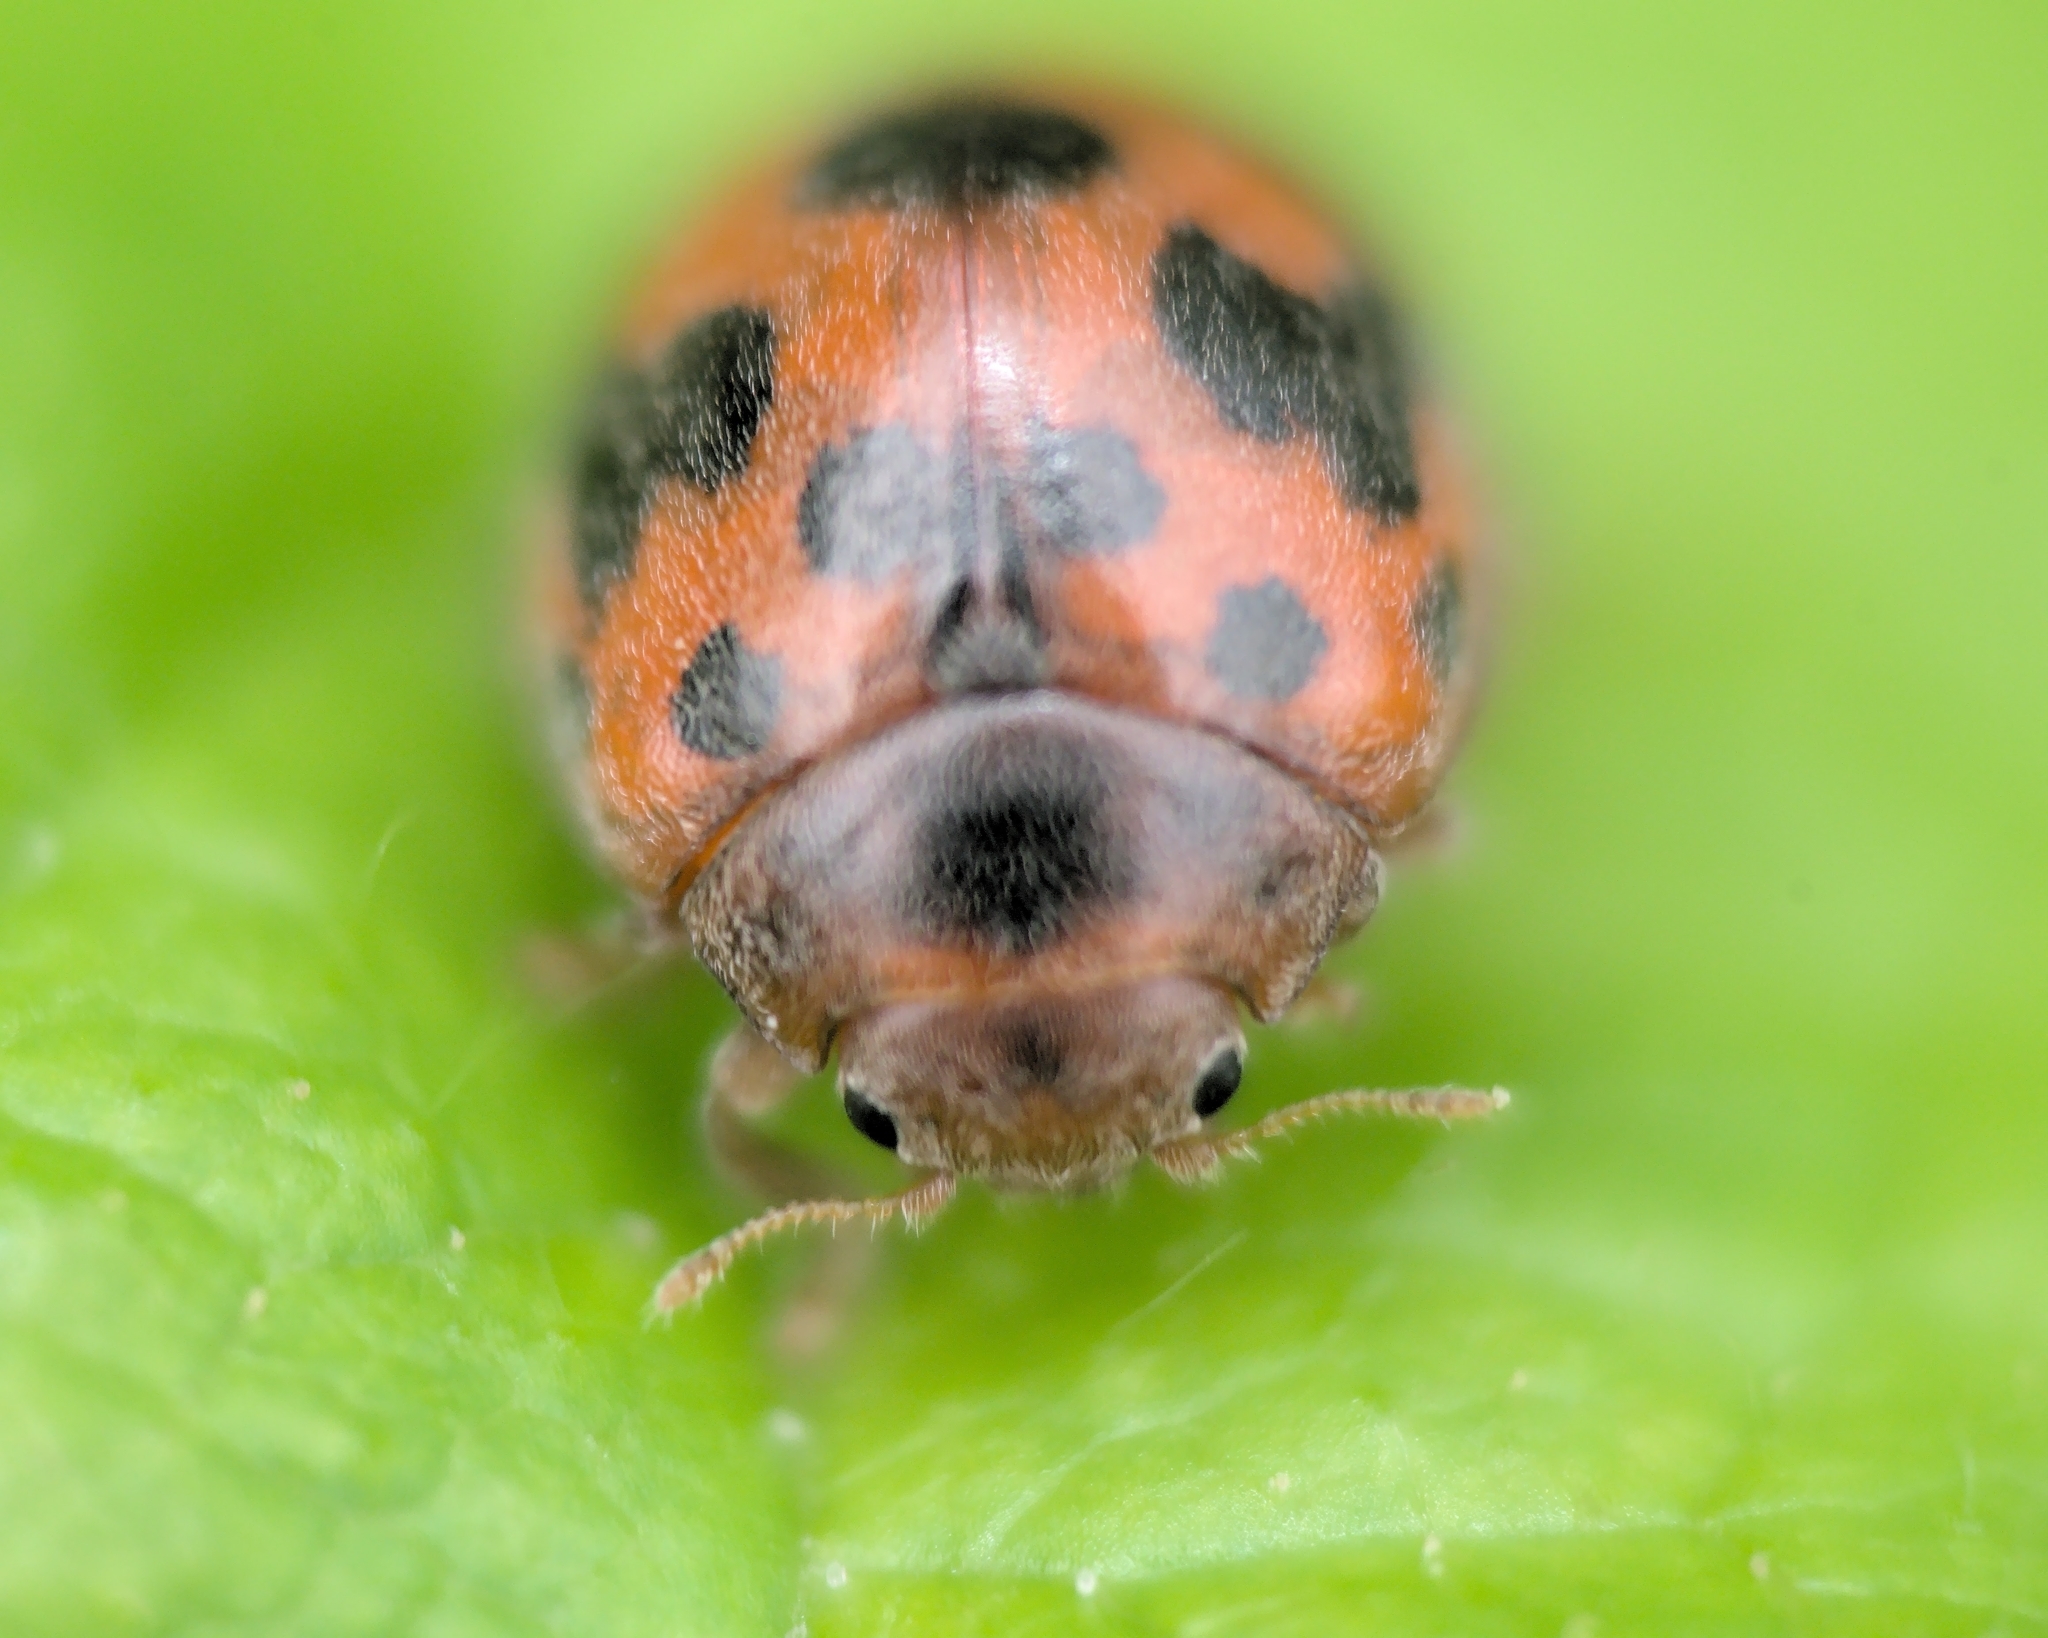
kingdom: Animalia
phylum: Arthropoda
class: Insecta
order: Coleoptera
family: Coccinellidae
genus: Subcoccinella
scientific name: Subcoccinella vigintiquatuorpunctata
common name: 24-spot ladybird
